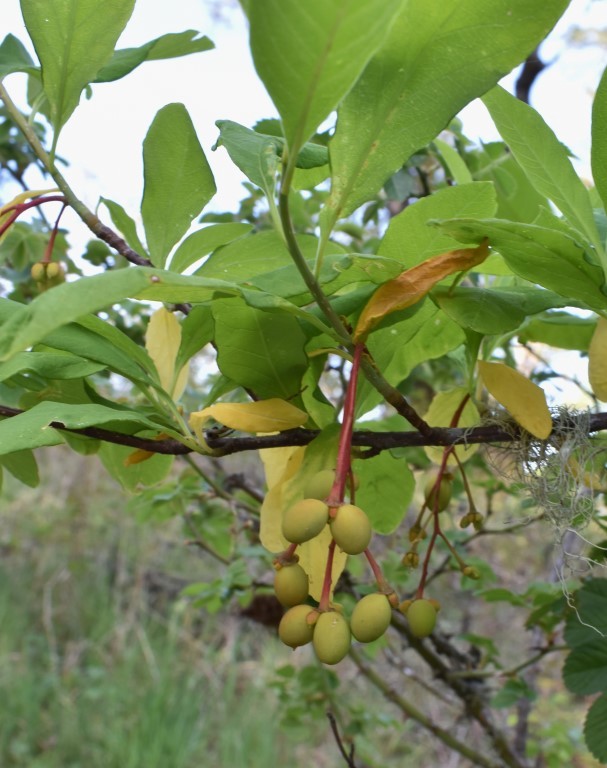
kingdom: Plantae
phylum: Tracheophyta
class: Magnoliopsida
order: Rosales
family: Rosaceae
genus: Oemleria
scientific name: Oemleria cerasiformis
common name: Osoberry
